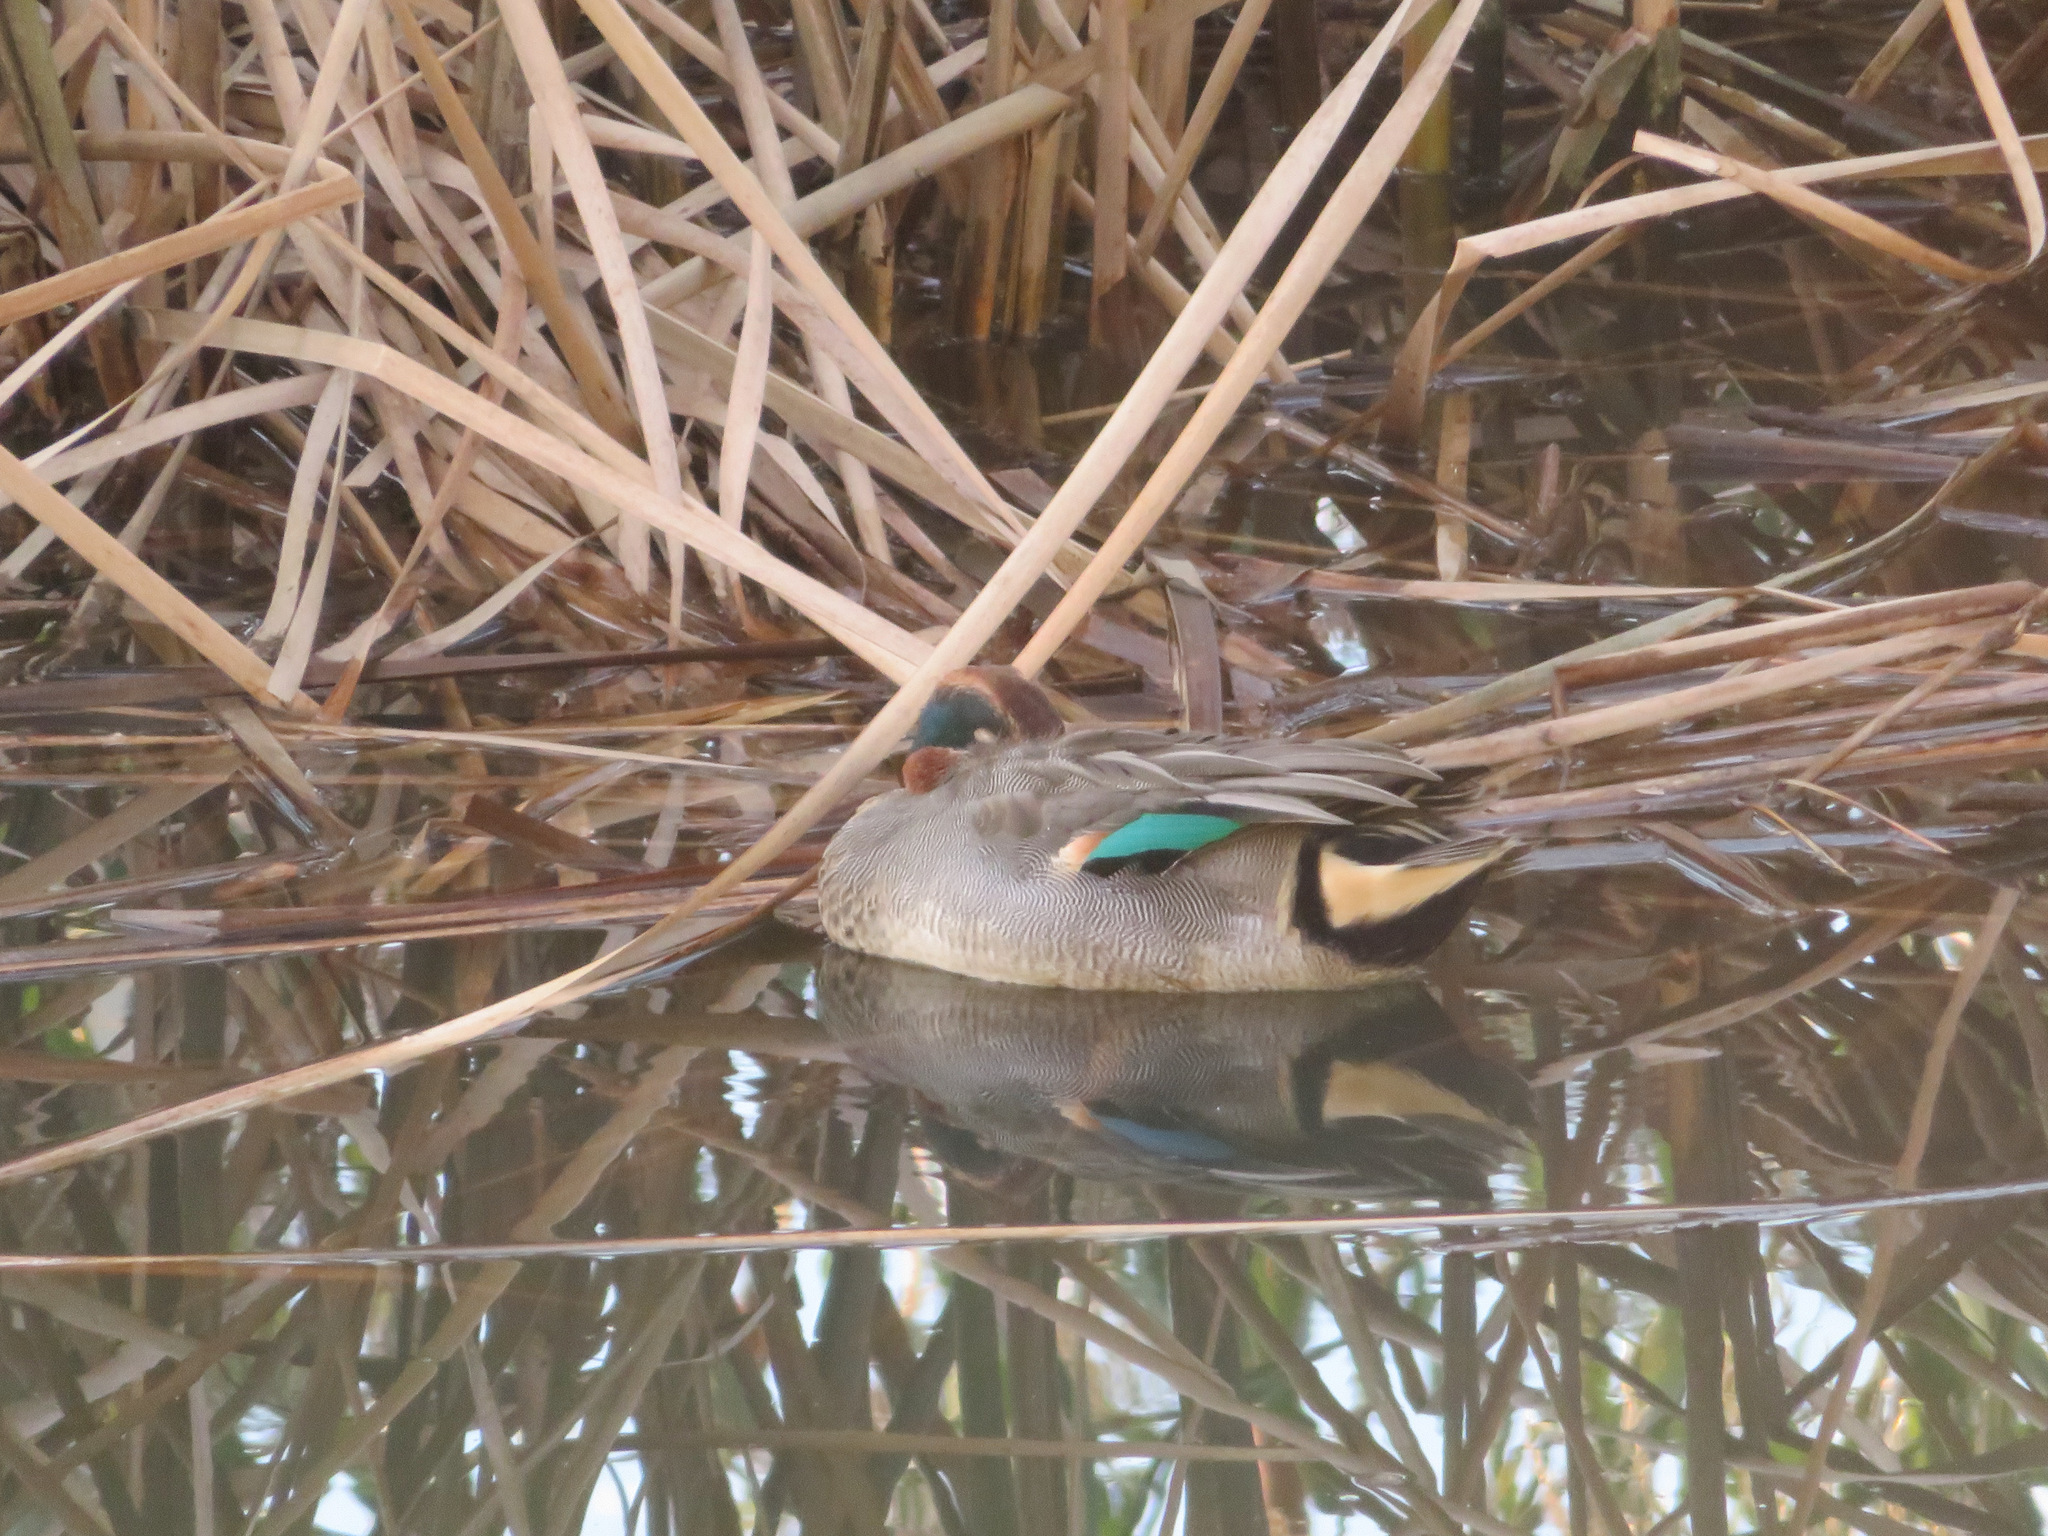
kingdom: Animalia
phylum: Chordata
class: Aves
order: Anseriformes
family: Anatidae
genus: Anas
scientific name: Anas crecca
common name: Eurasian teal
